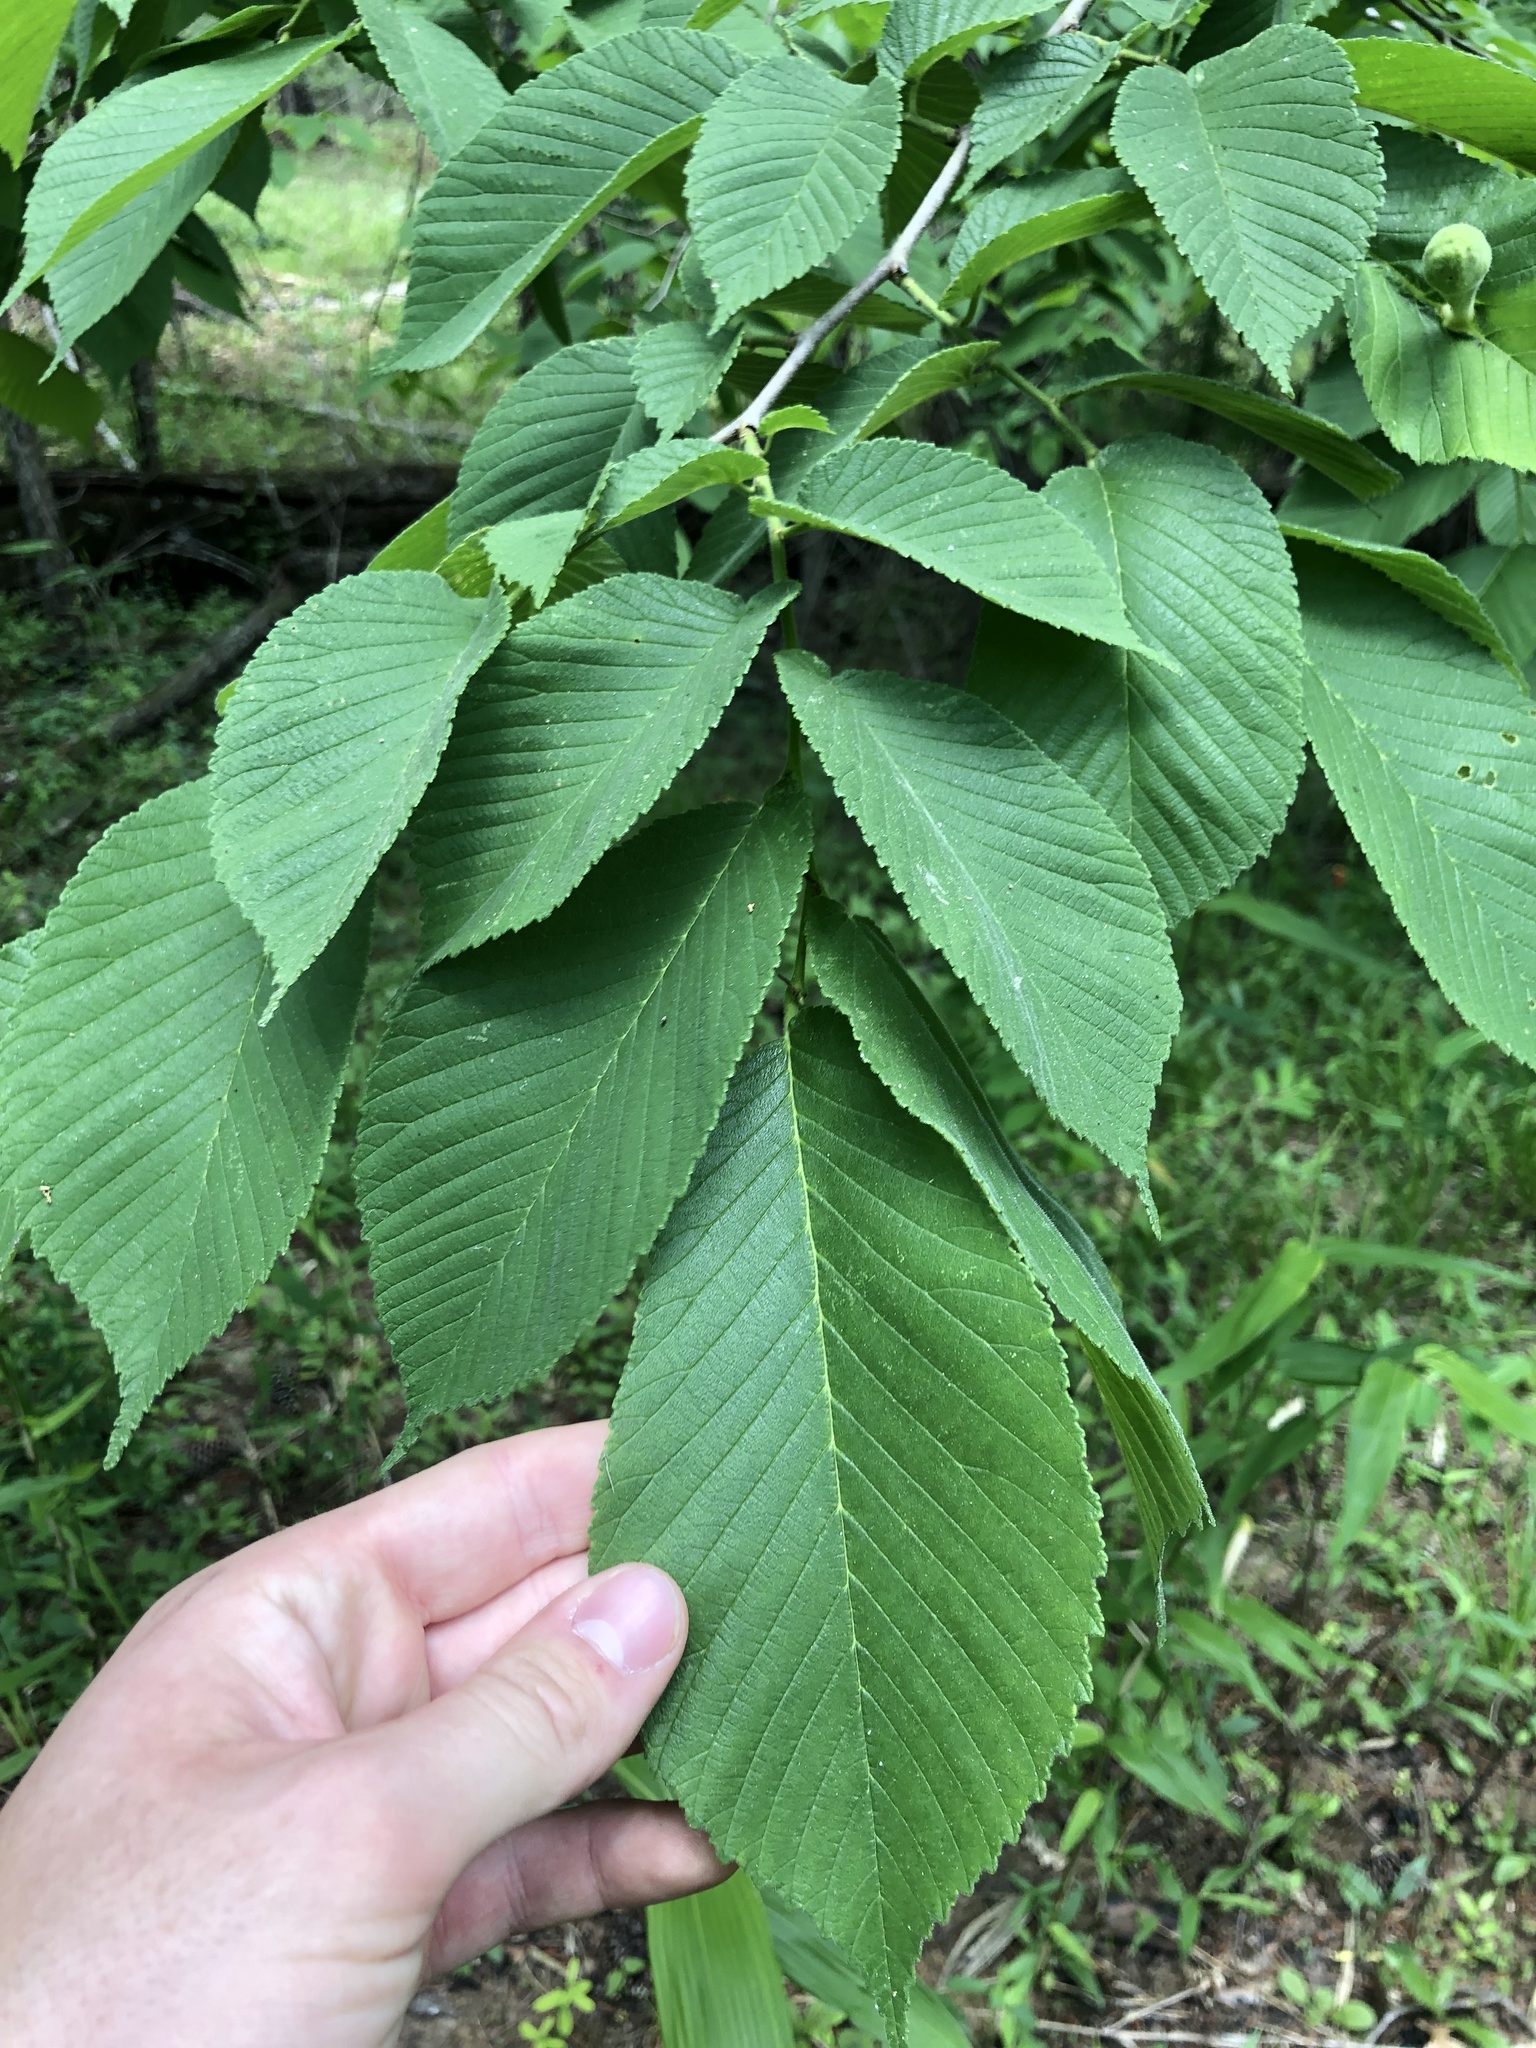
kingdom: Plantae
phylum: Tracheophyta
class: Magnoliopsida
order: Rosales
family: Ulmaceae
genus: Ulmus
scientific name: Ulmus rubra
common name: Slippery elm
